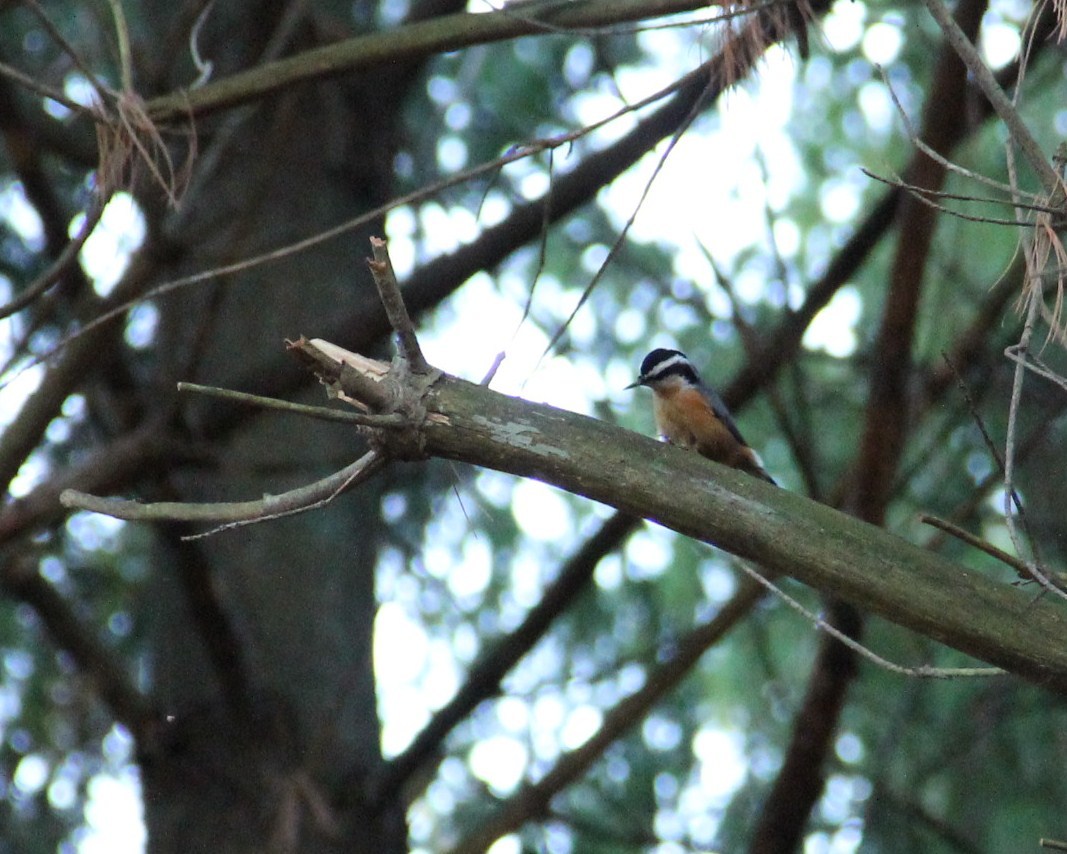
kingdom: Animalia
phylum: Chordata
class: Aves
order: Passeriformes
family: Sittidae
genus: Sitta
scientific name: Sitta canadensis
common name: Red-breasted nuthatch
